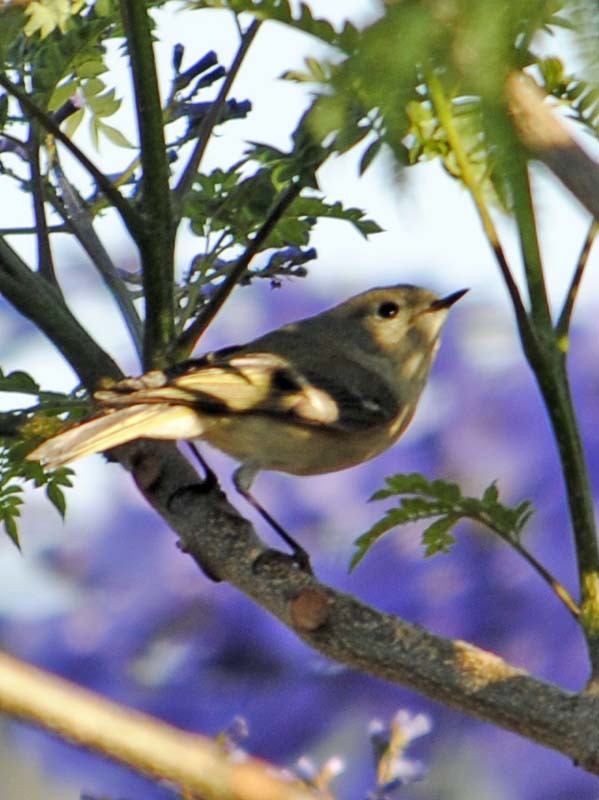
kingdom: Animalia
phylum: Chordata
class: Aves
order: Passeriformes
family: Regulidae
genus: Regulus
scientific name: Regulus calendula
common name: Ruby-crowned kinglet
